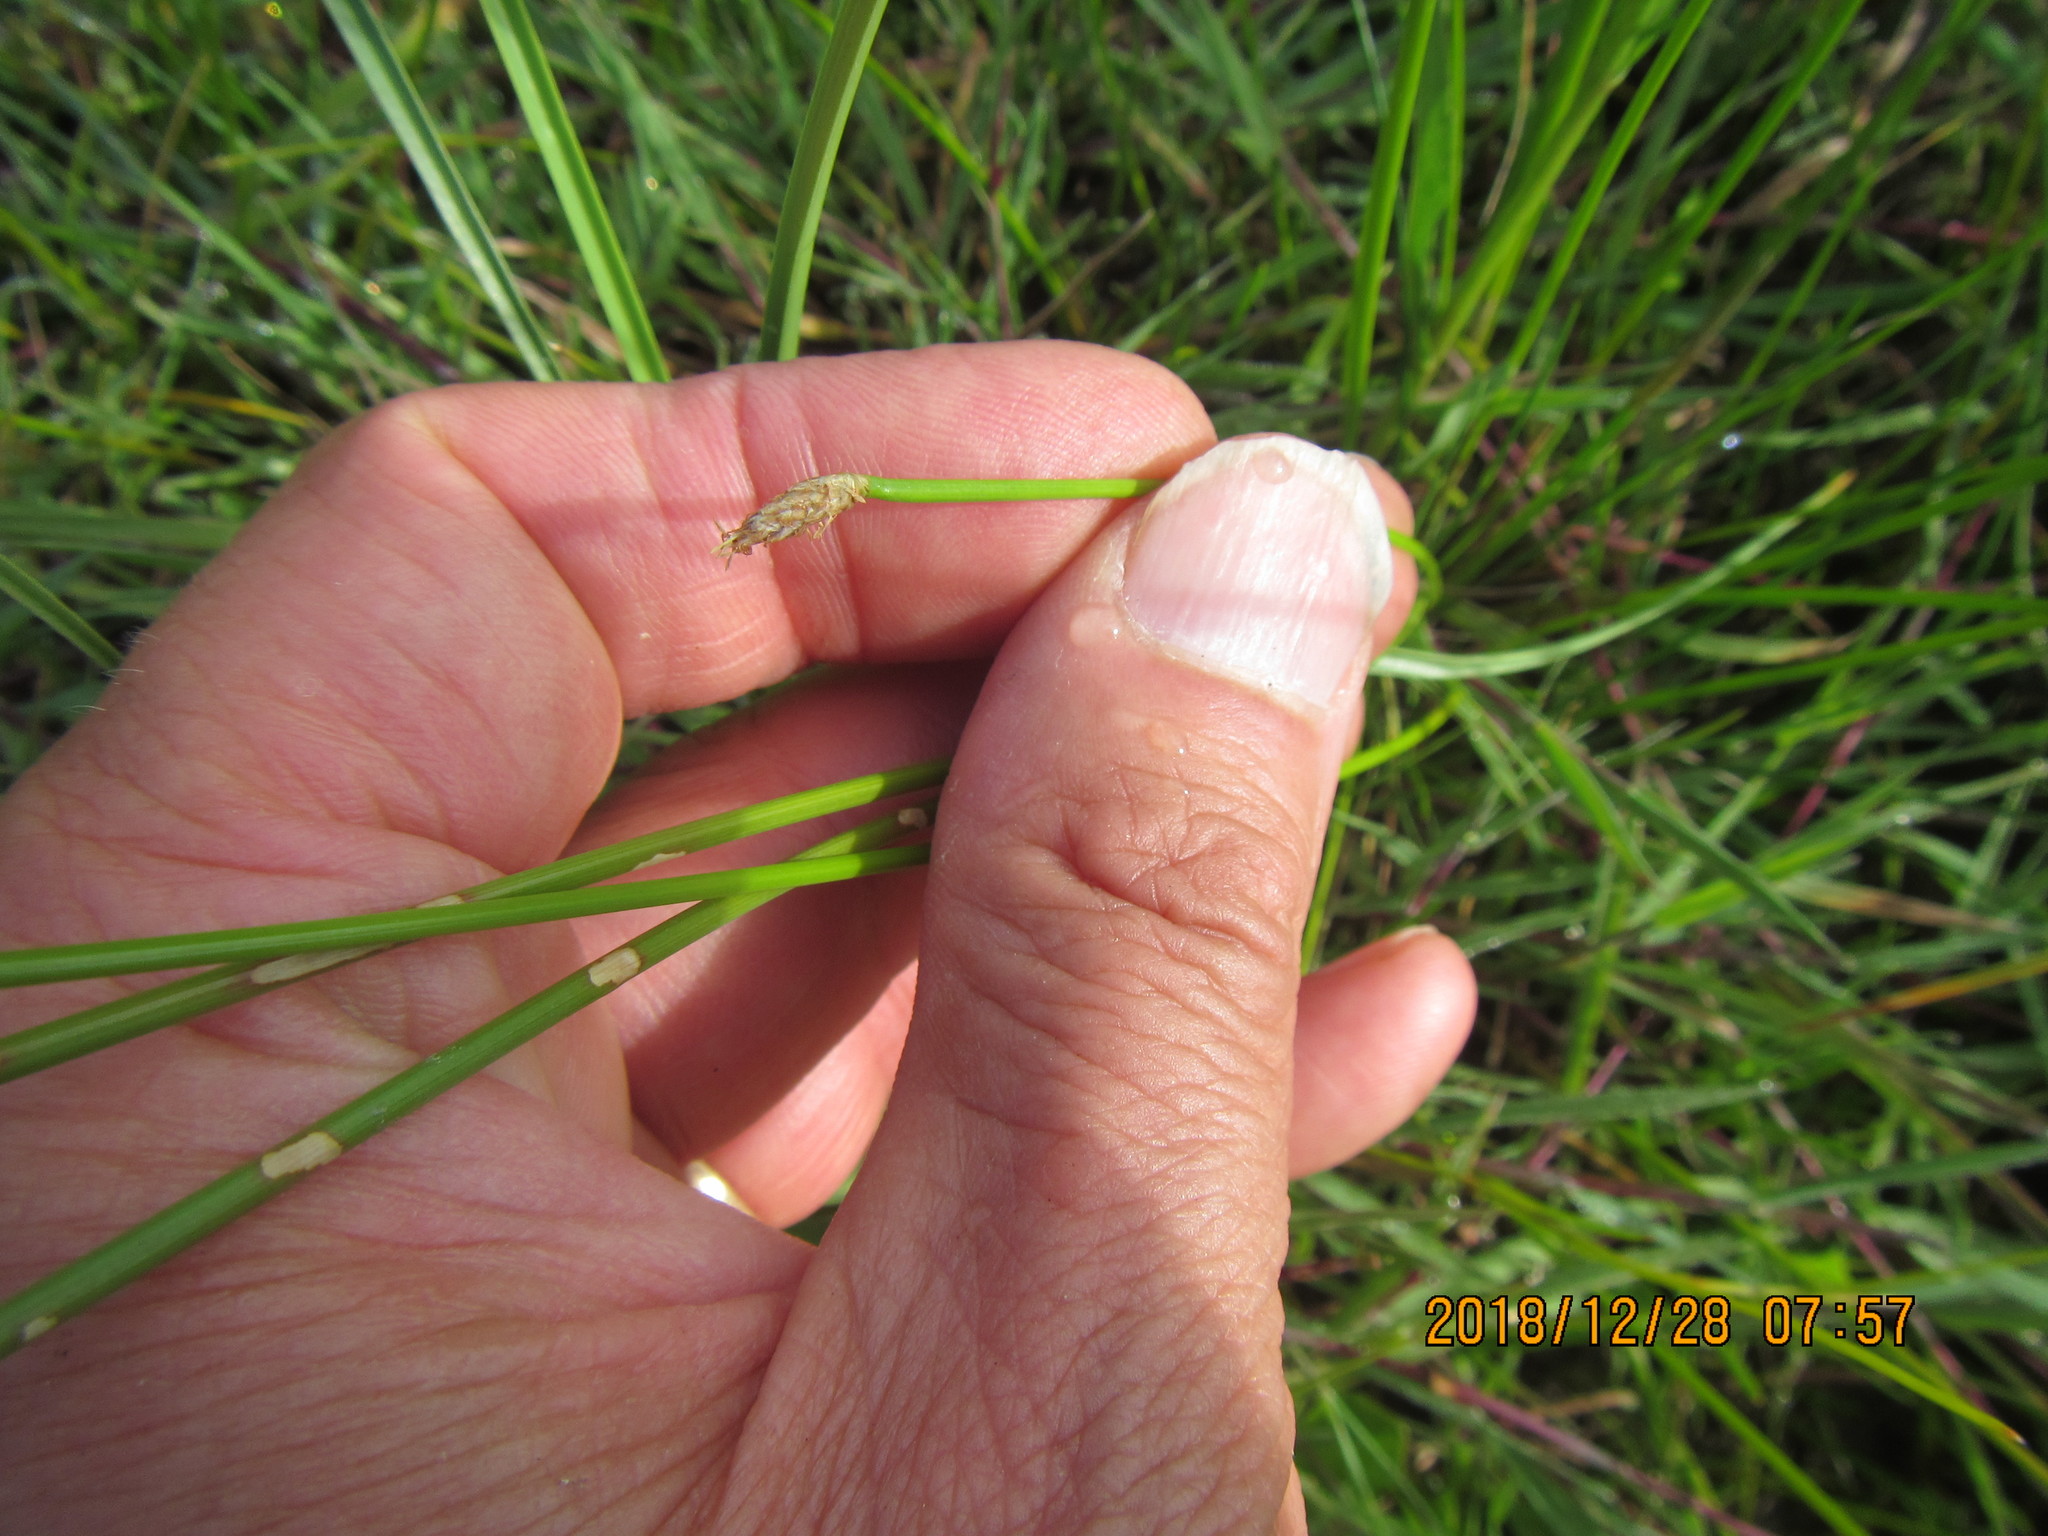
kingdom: Plantae
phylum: Tracheophyta
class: Liliopsida
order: Poales
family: Cyperaceae
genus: Eleocharis
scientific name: Eleocharis acuta
